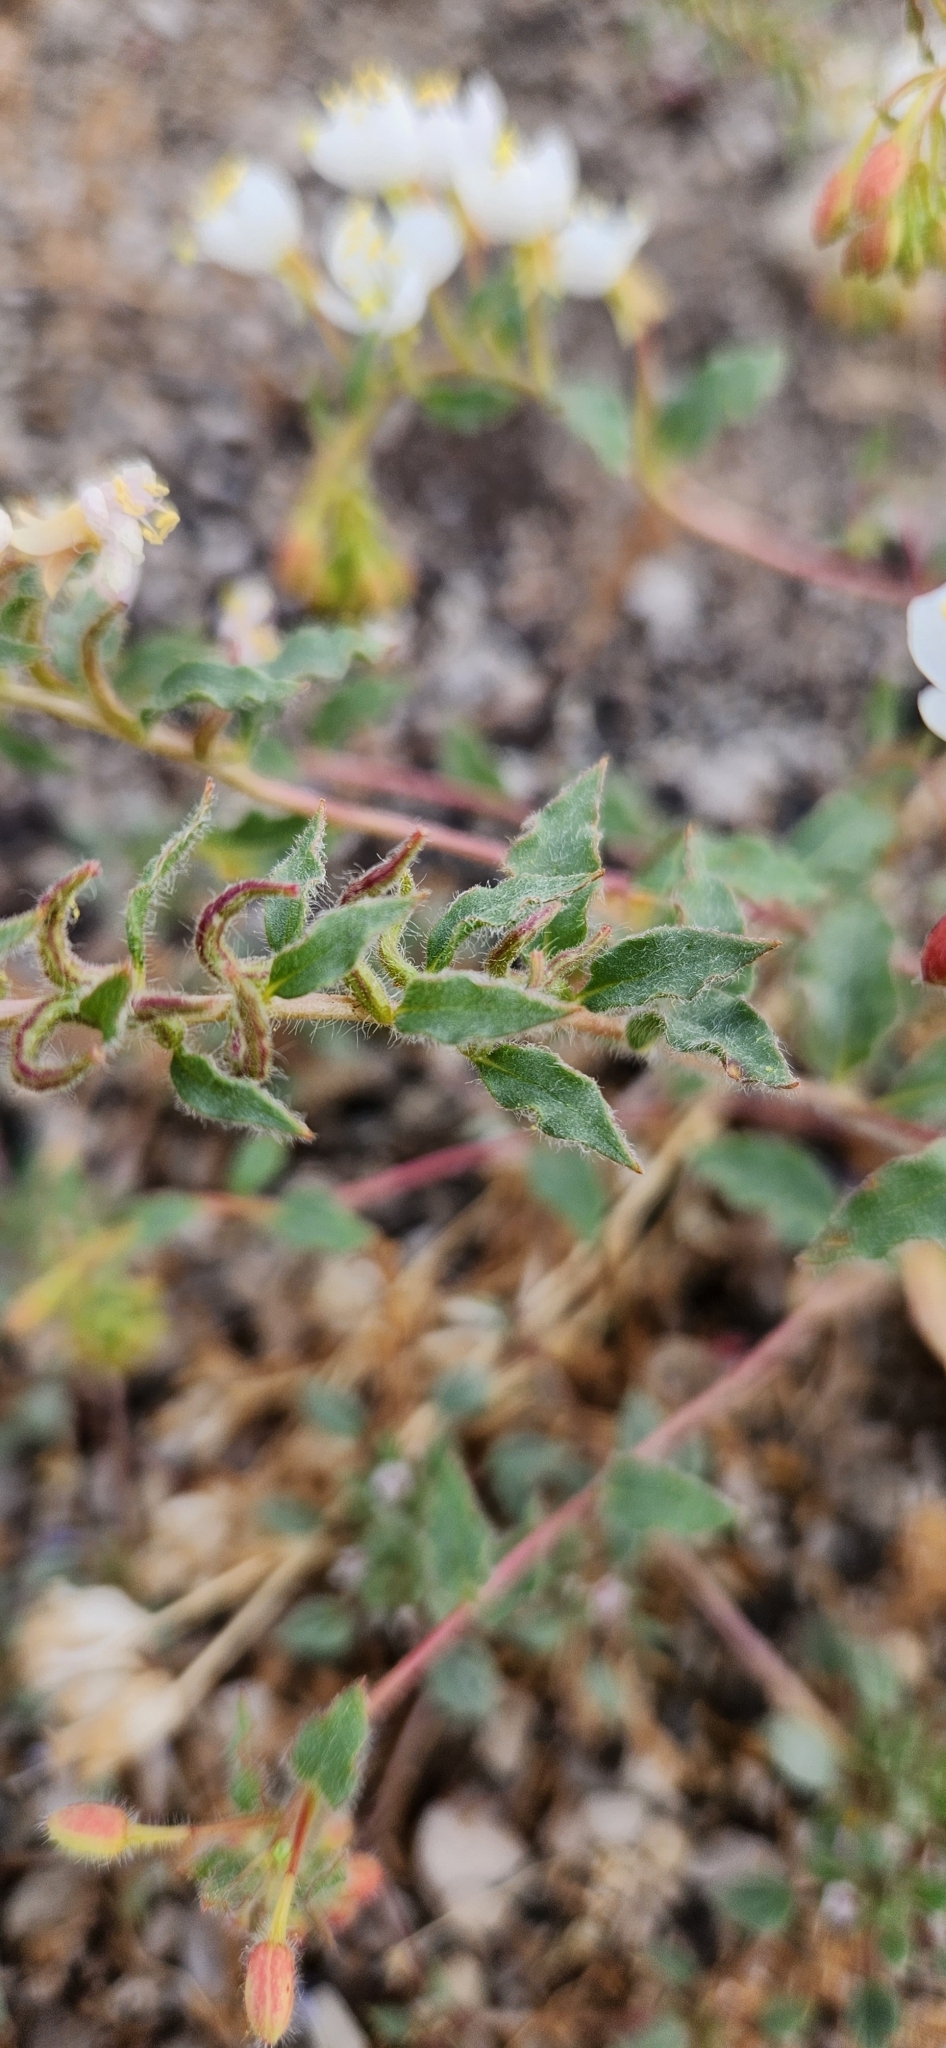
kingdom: Plantae
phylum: Tracheophyta
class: Magnoliopsida
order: Myrtales
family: Onagraceae
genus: Eremothera
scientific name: Eremothera boothii
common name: Booth's evening primrose
